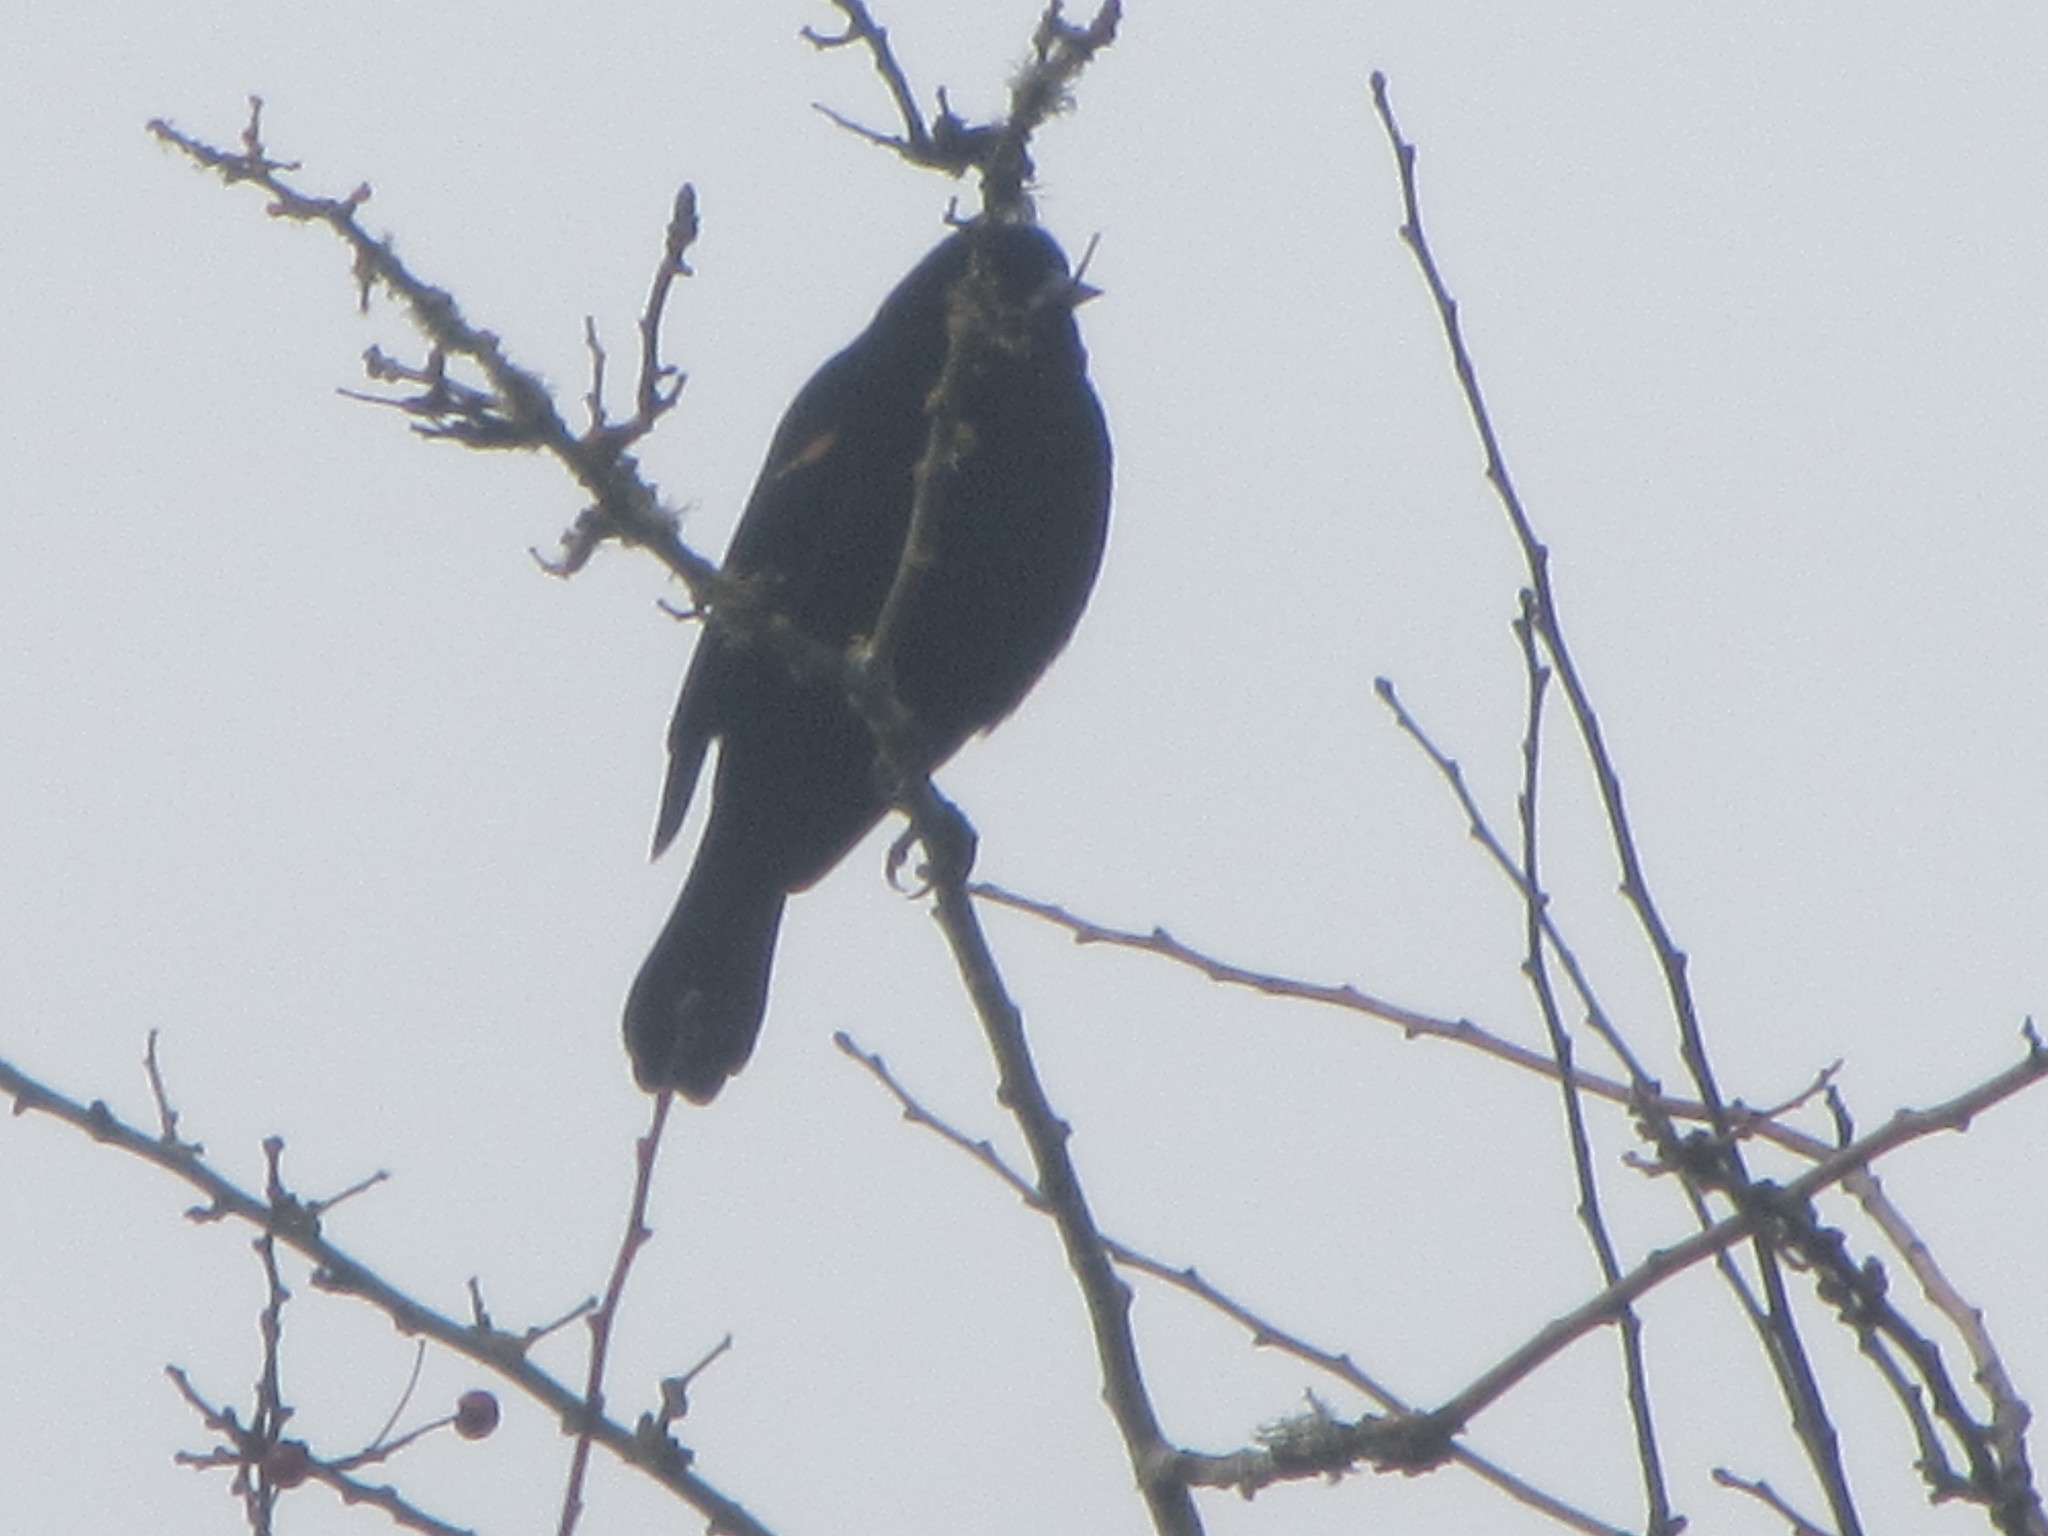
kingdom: Animalia
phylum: Chordata
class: Aves
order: Passeriformes
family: Icteridae
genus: Agelaius
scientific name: Agelaius phoeniceus
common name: Red-winged blackbird
